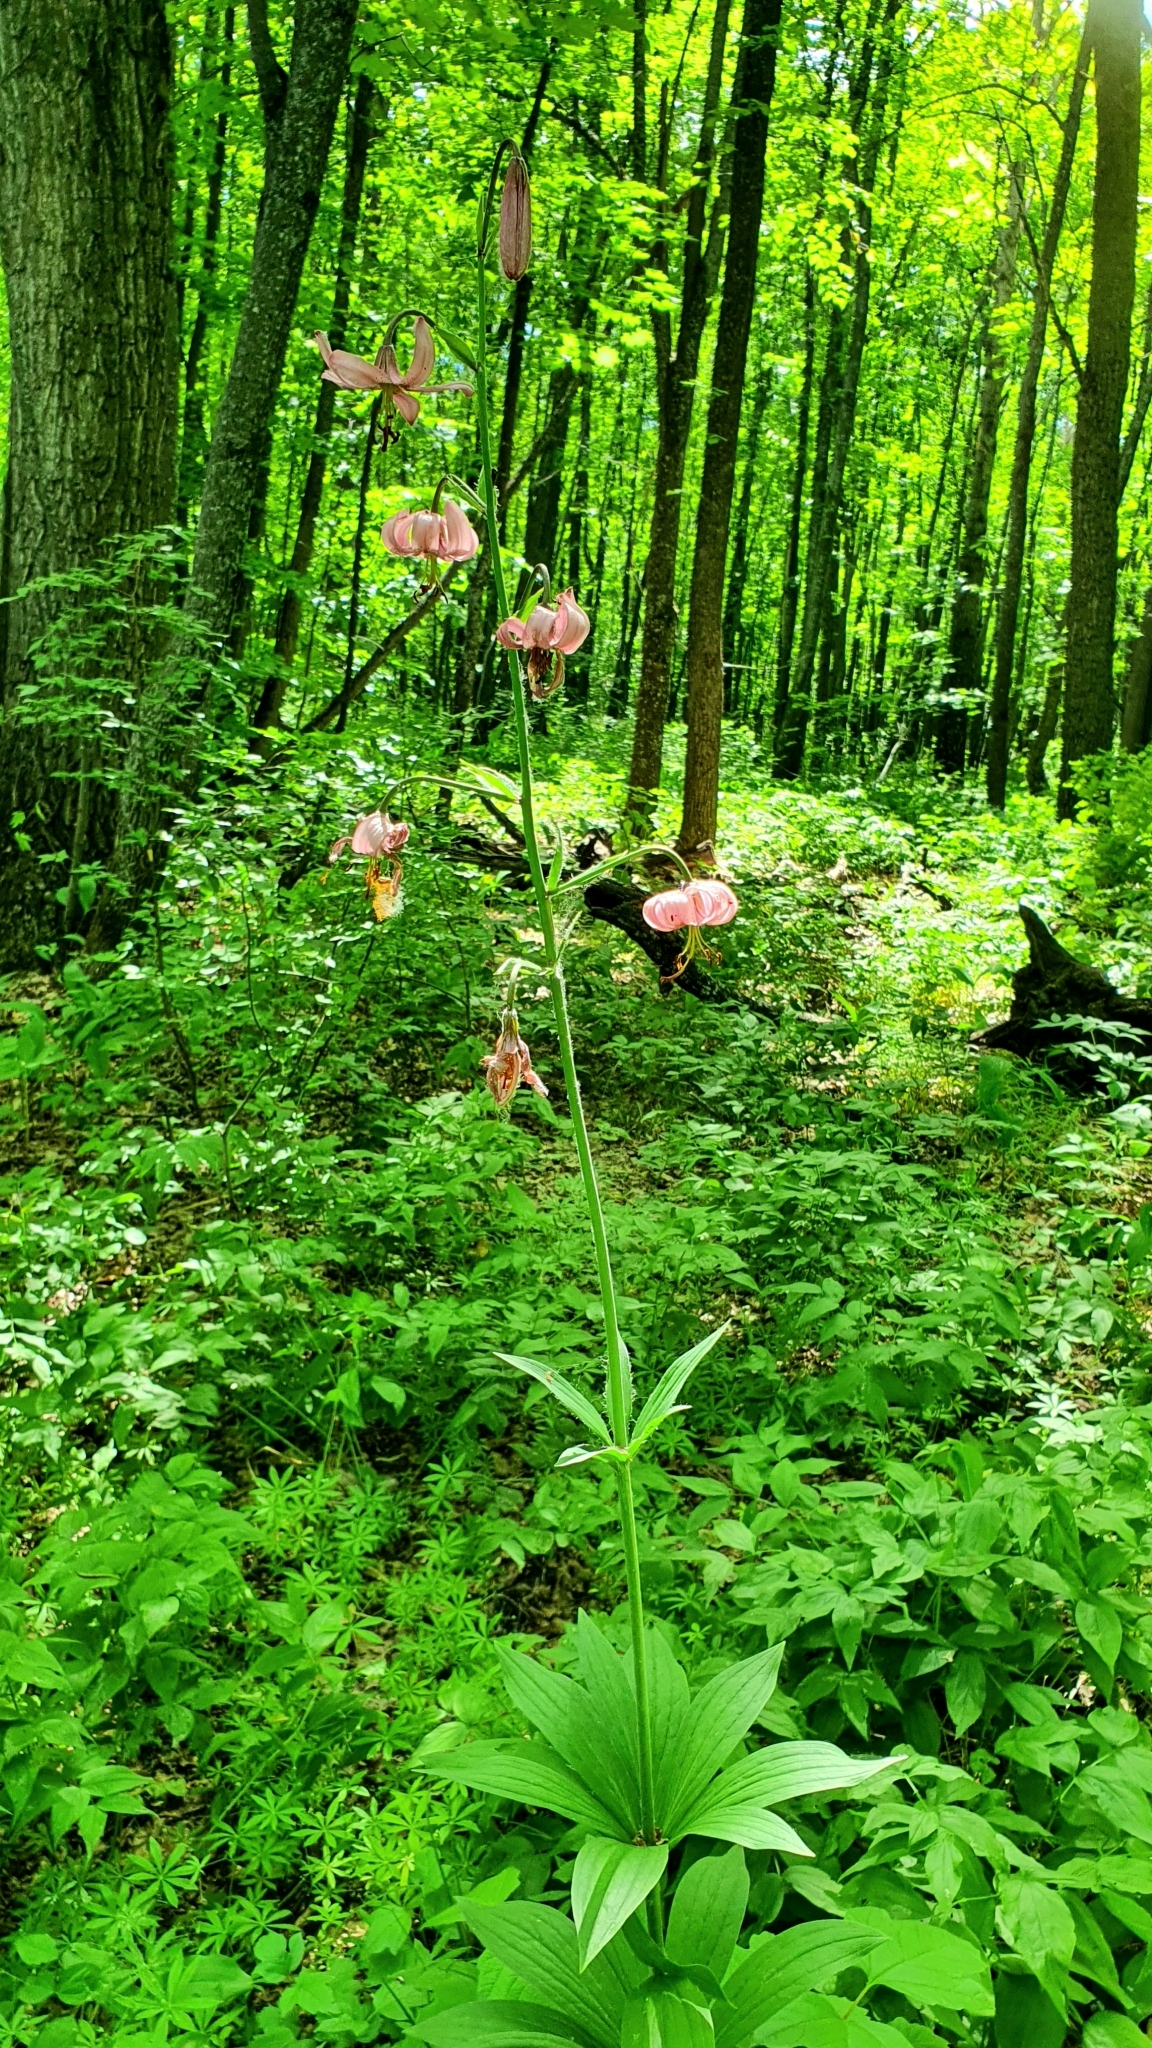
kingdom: Plantae
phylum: Tracheophyta
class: Liliopsida
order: Liliales
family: Liliaceae
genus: Lilium
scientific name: Lilium martagon
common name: Martagon lily
